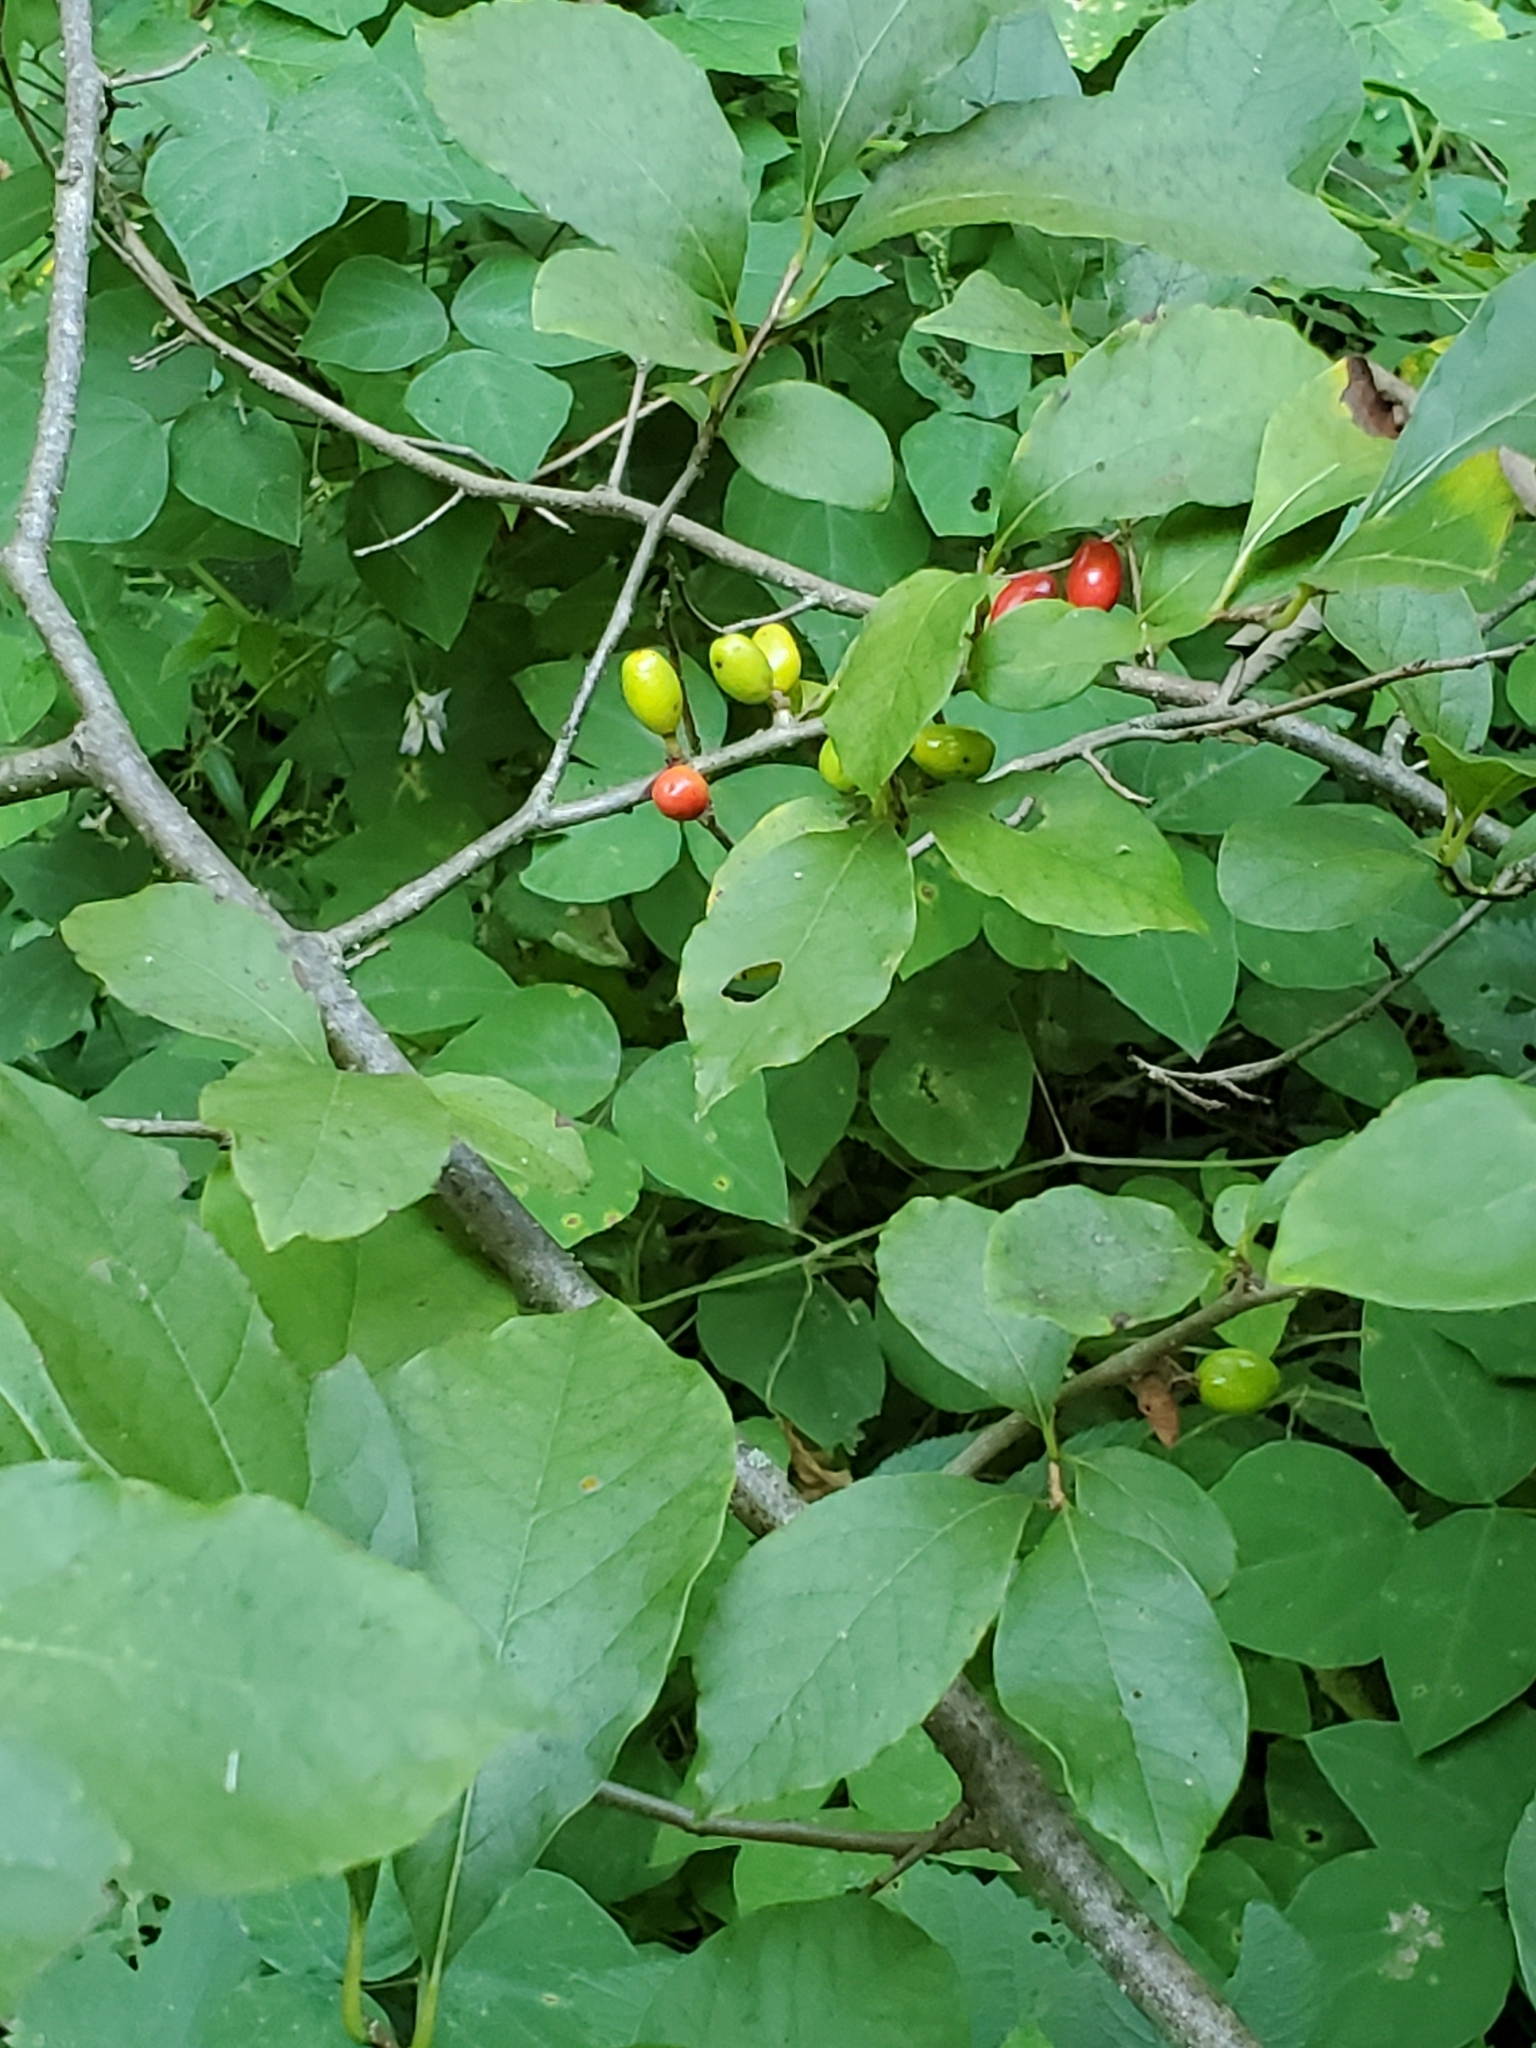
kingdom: Plantae
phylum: Tracheophyta
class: Magnoliopsida
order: Laurales
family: Lauraceae
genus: Lindera
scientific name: Lindera benzoin
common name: Spicebush
